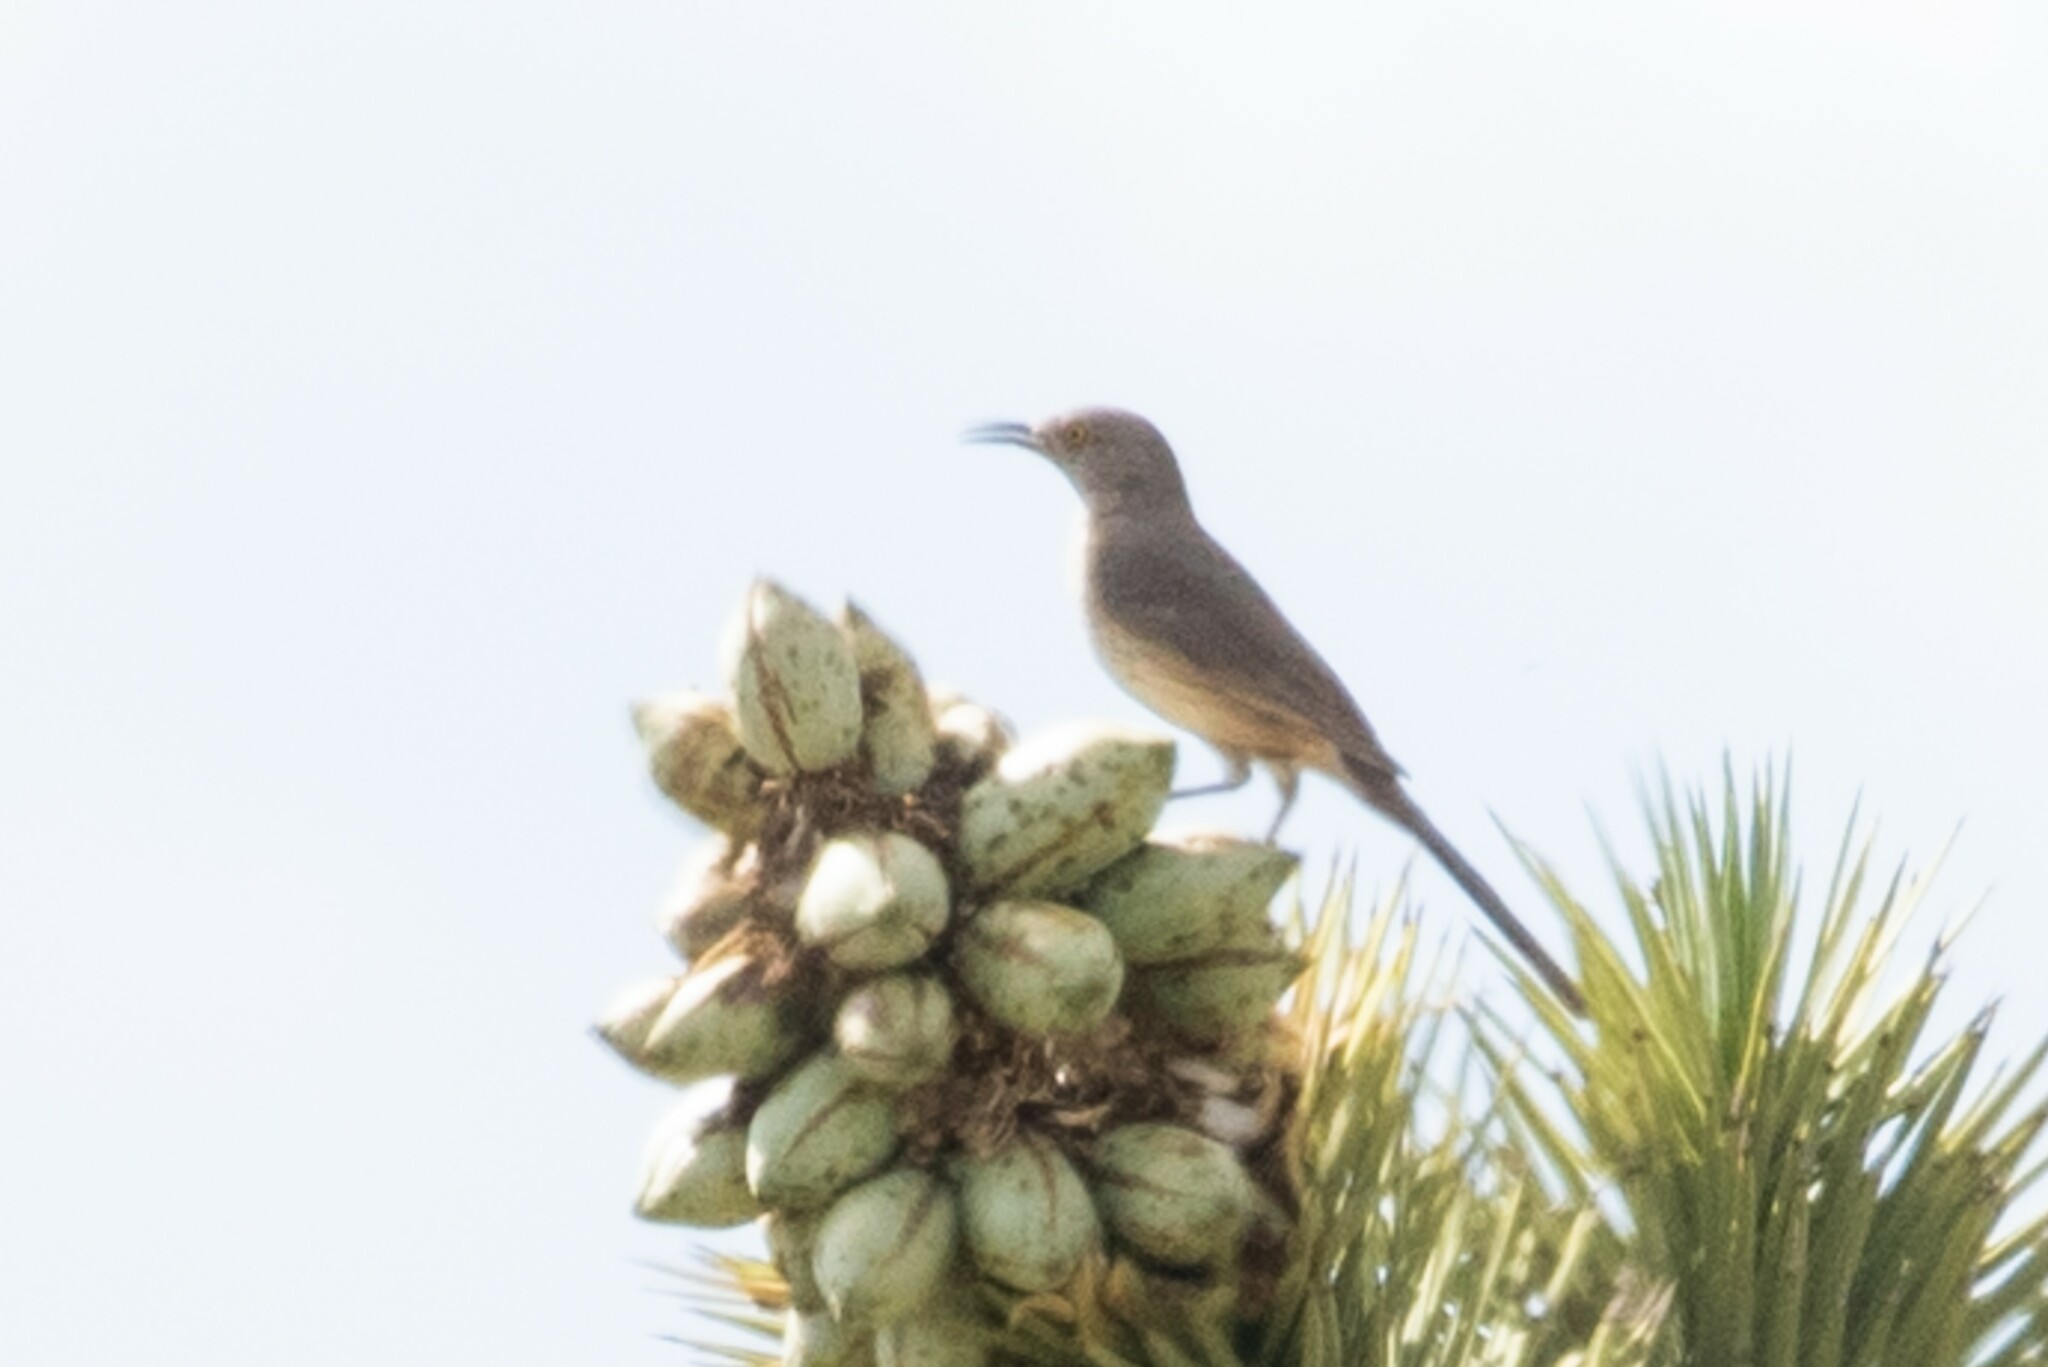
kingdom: Animalia
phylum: Chordata
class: Aves
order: Passeriformes
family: Mimidae
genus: Toxostoma
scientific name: Toxostoma bendirei
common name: Bendire's thrasher
